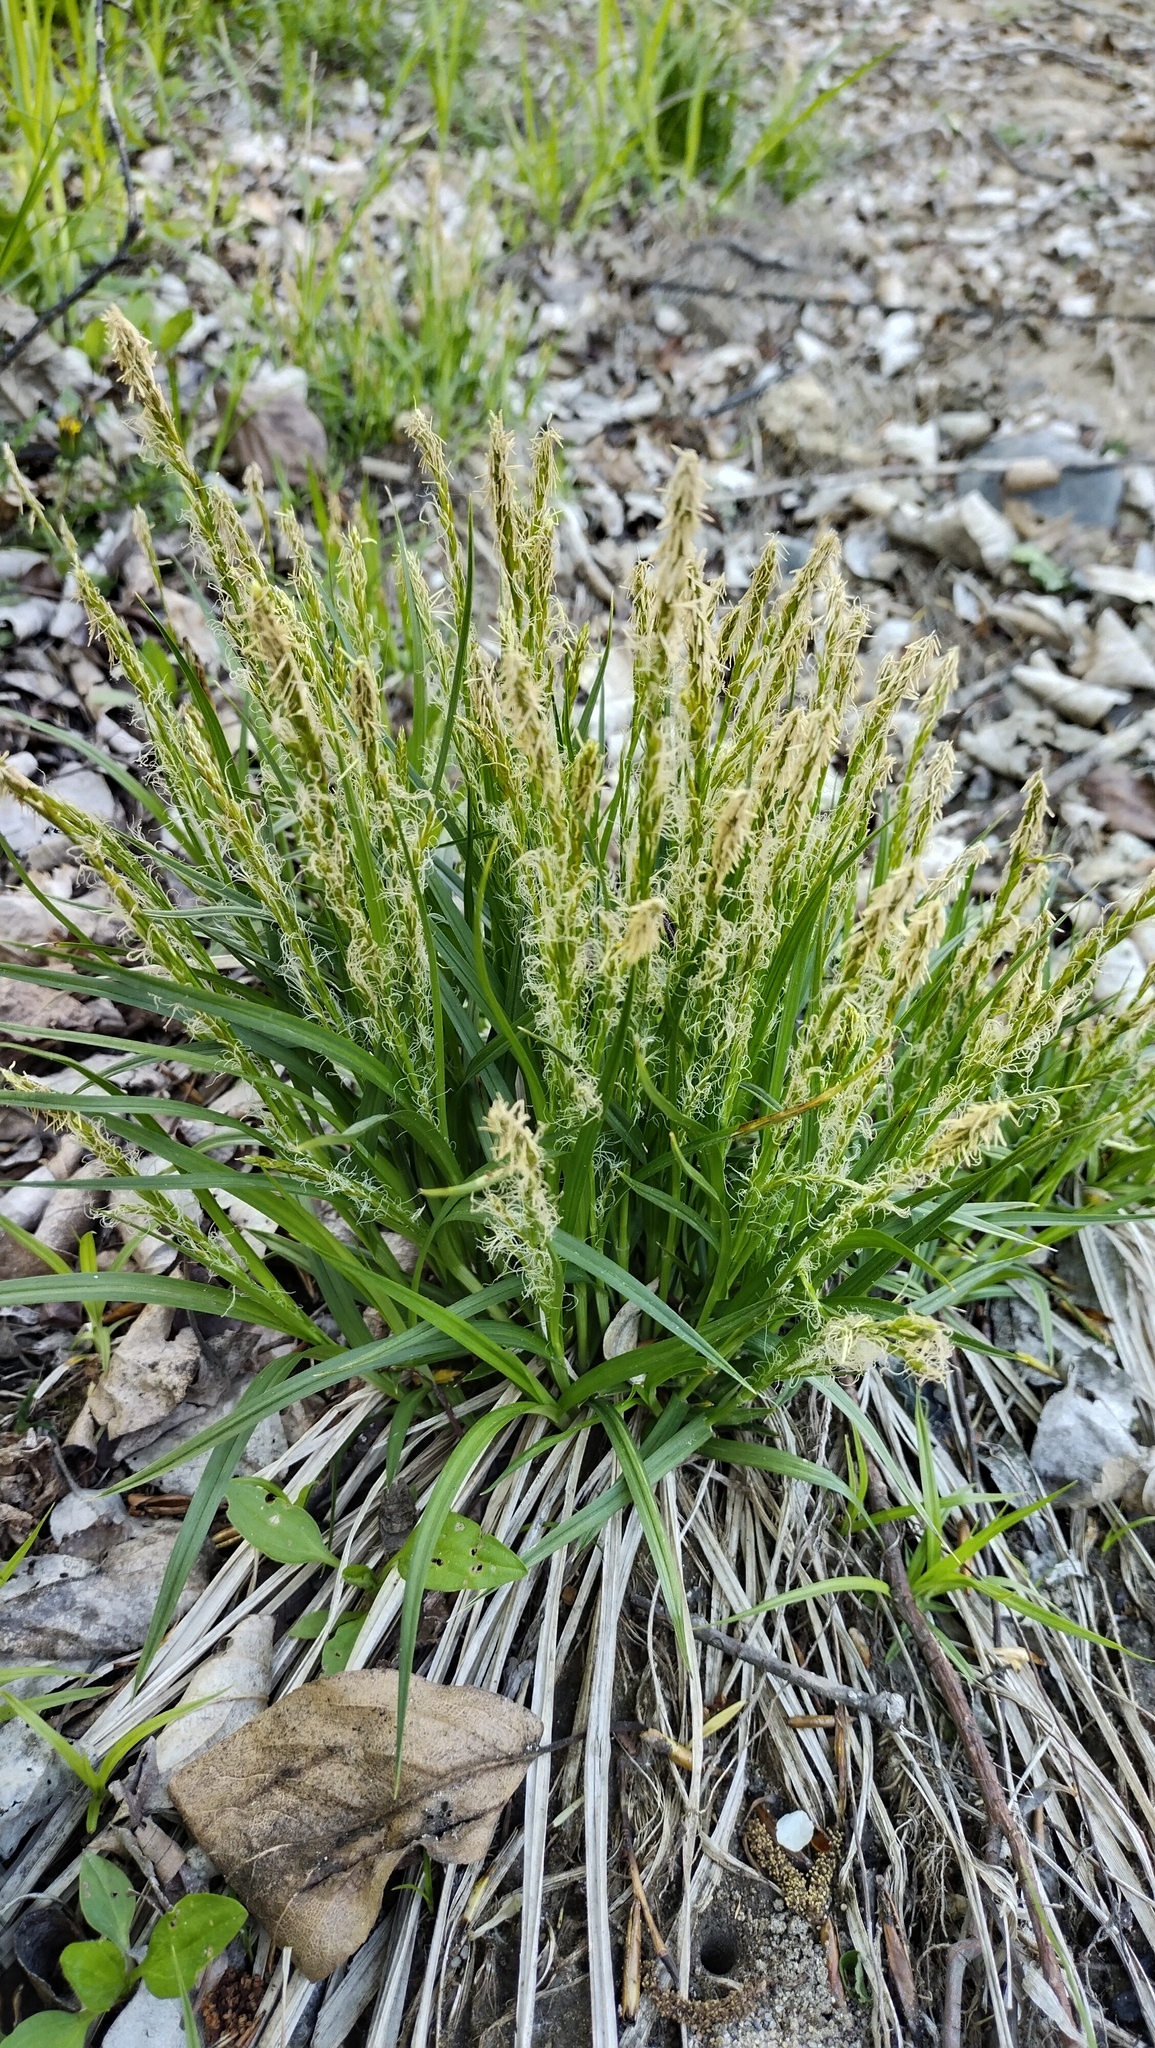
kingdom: Plantae
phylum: Tracheophyta
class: Liliopsida
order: Poales
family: Cyperaceae
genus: Carex
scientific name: Carex bostrychostigma
